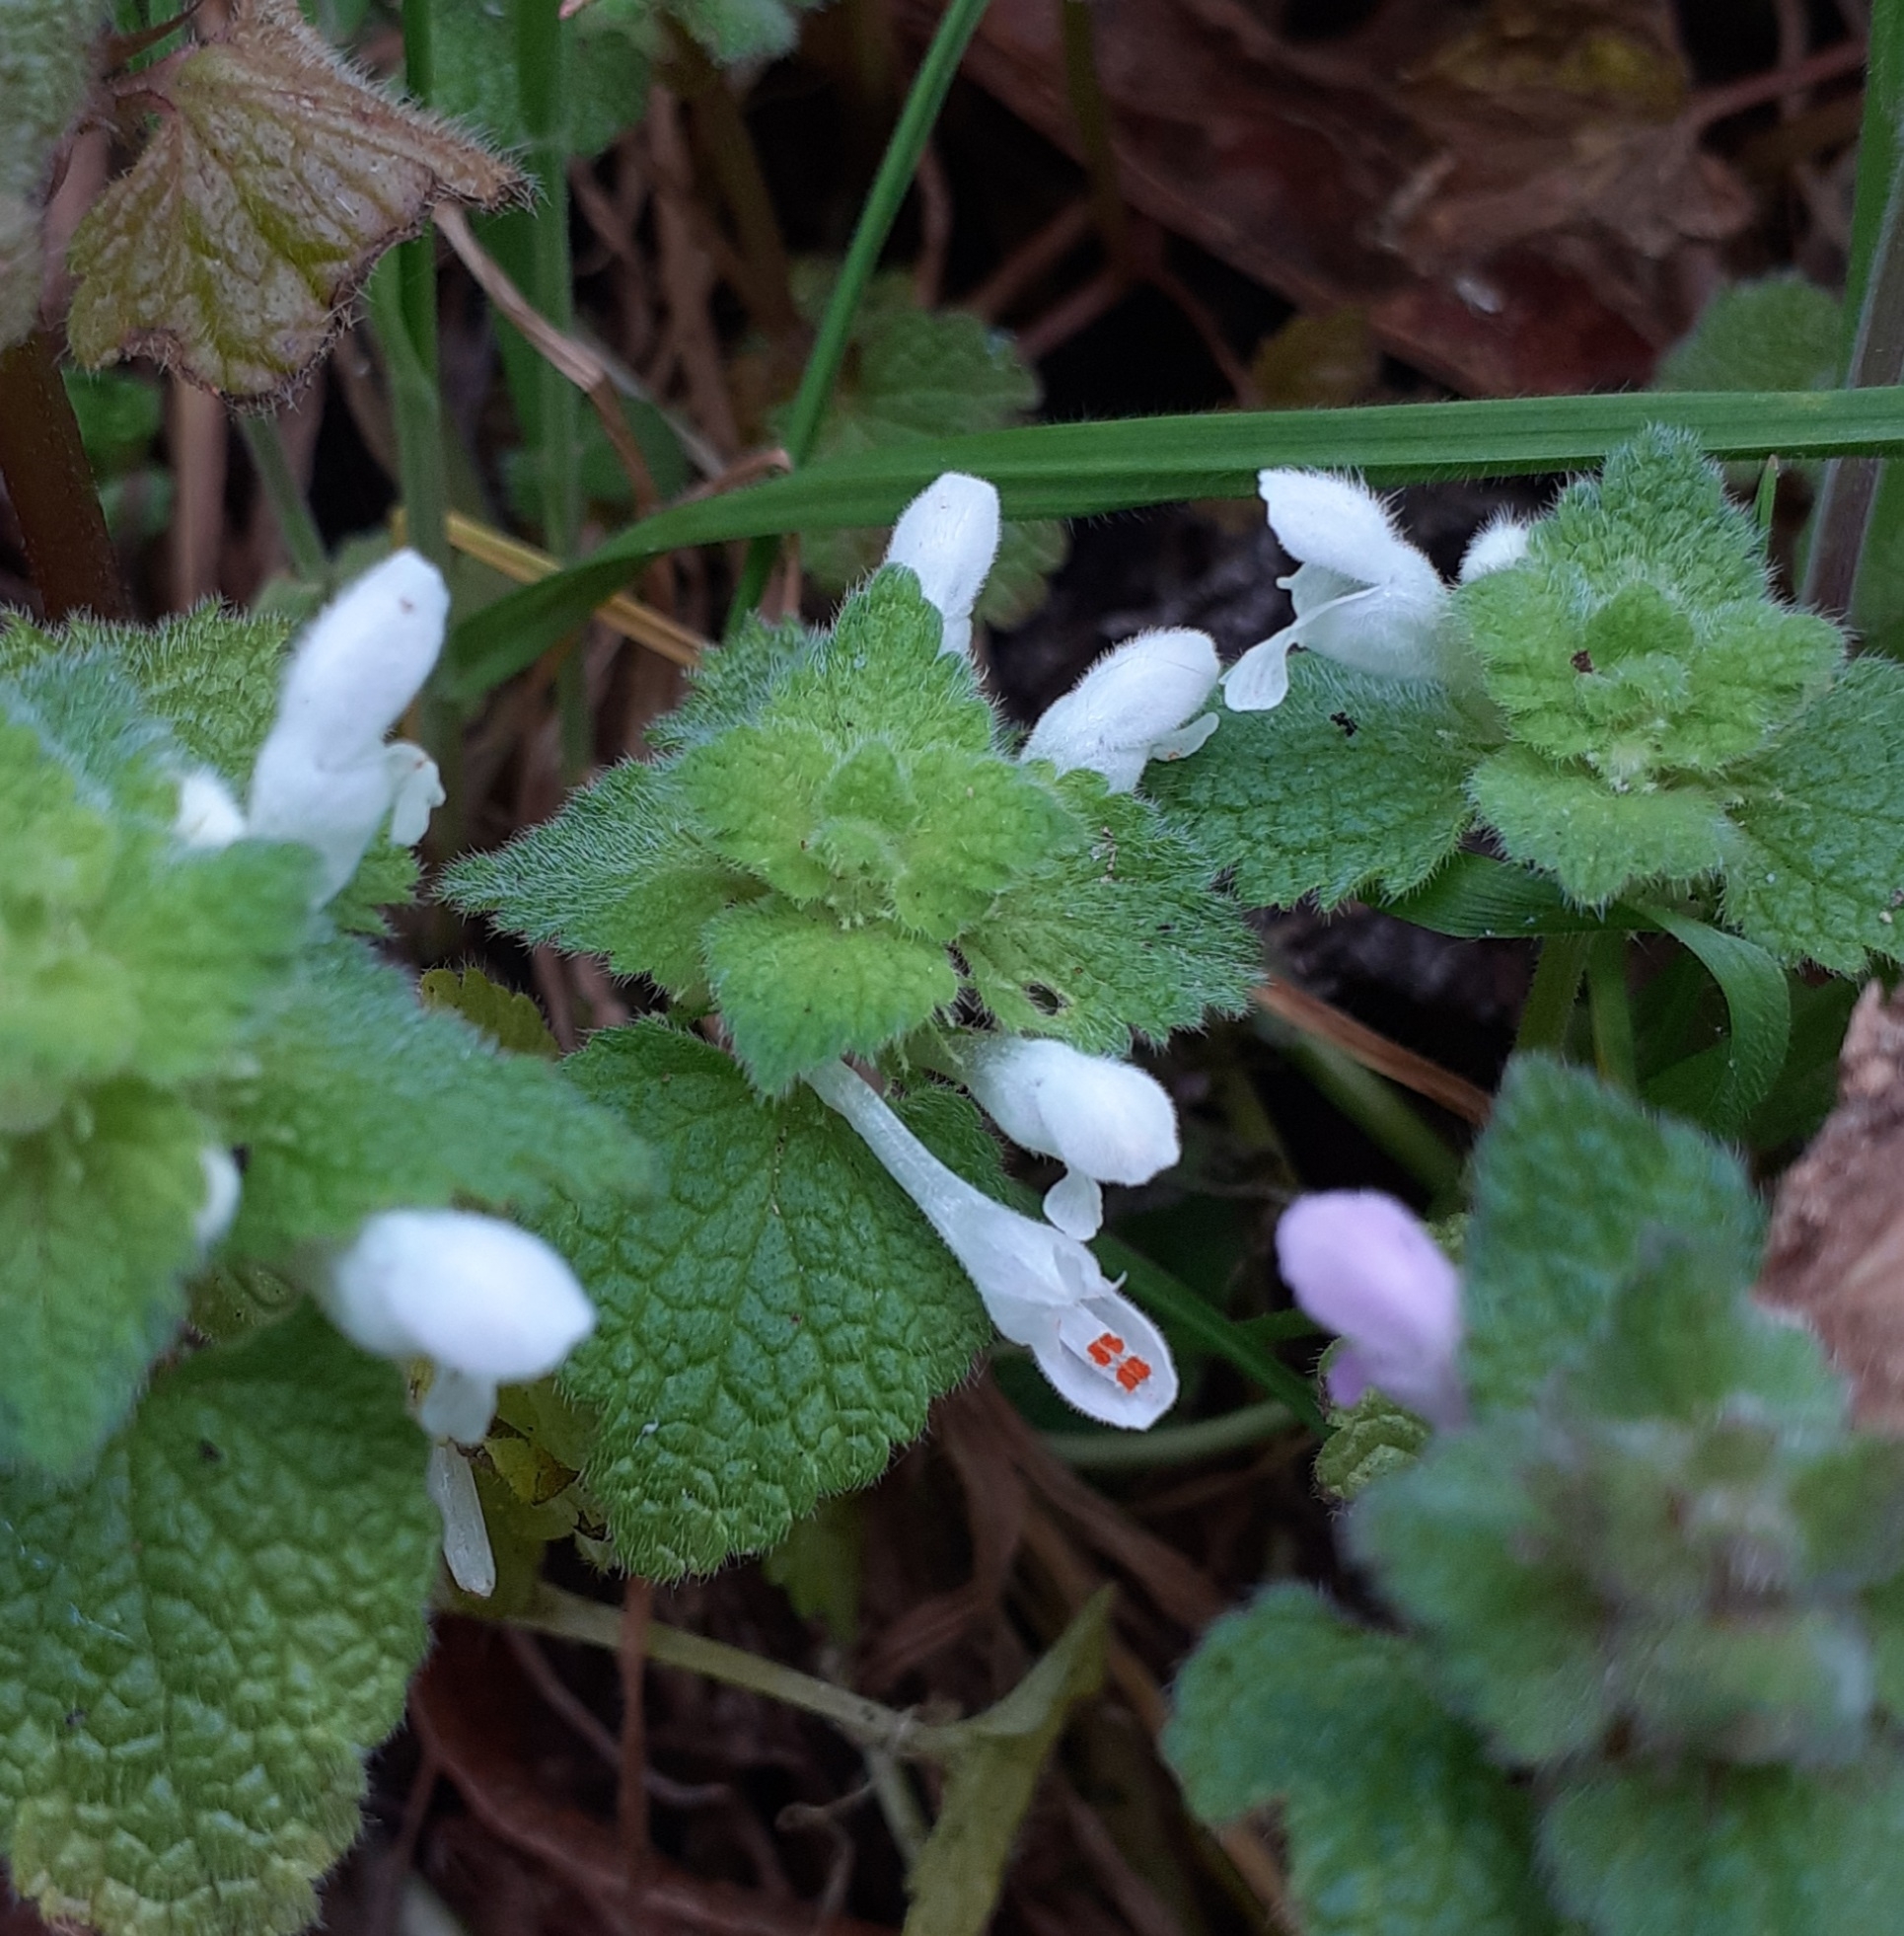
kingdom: Plantae
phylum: Tracheophyta
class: Magnoliopsida
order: Lamiales
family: Lamiaceae
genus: Lamium
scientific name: Lamium purpureum
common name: Red dead-nettle
